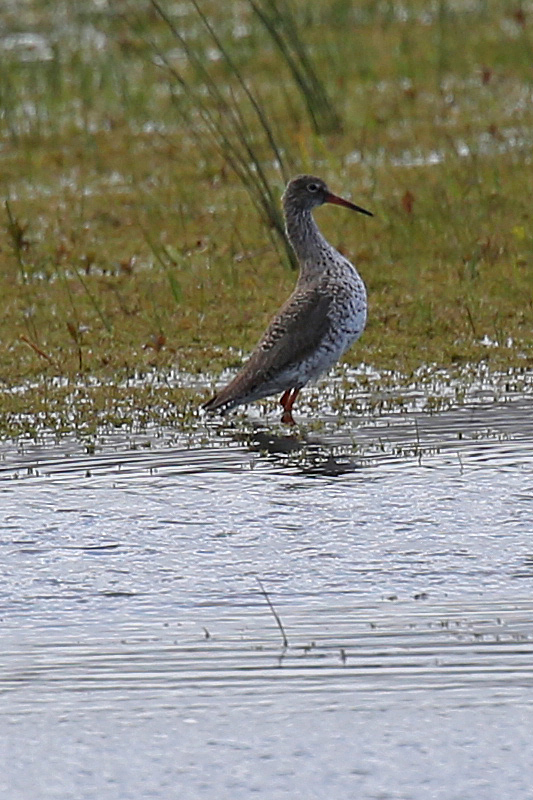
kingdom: Animalia
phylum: Chordata
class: Aves
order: Charadriiformes
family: Scolopacidae
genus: Tringa
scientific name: Tringa totanus
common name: Common redshank
